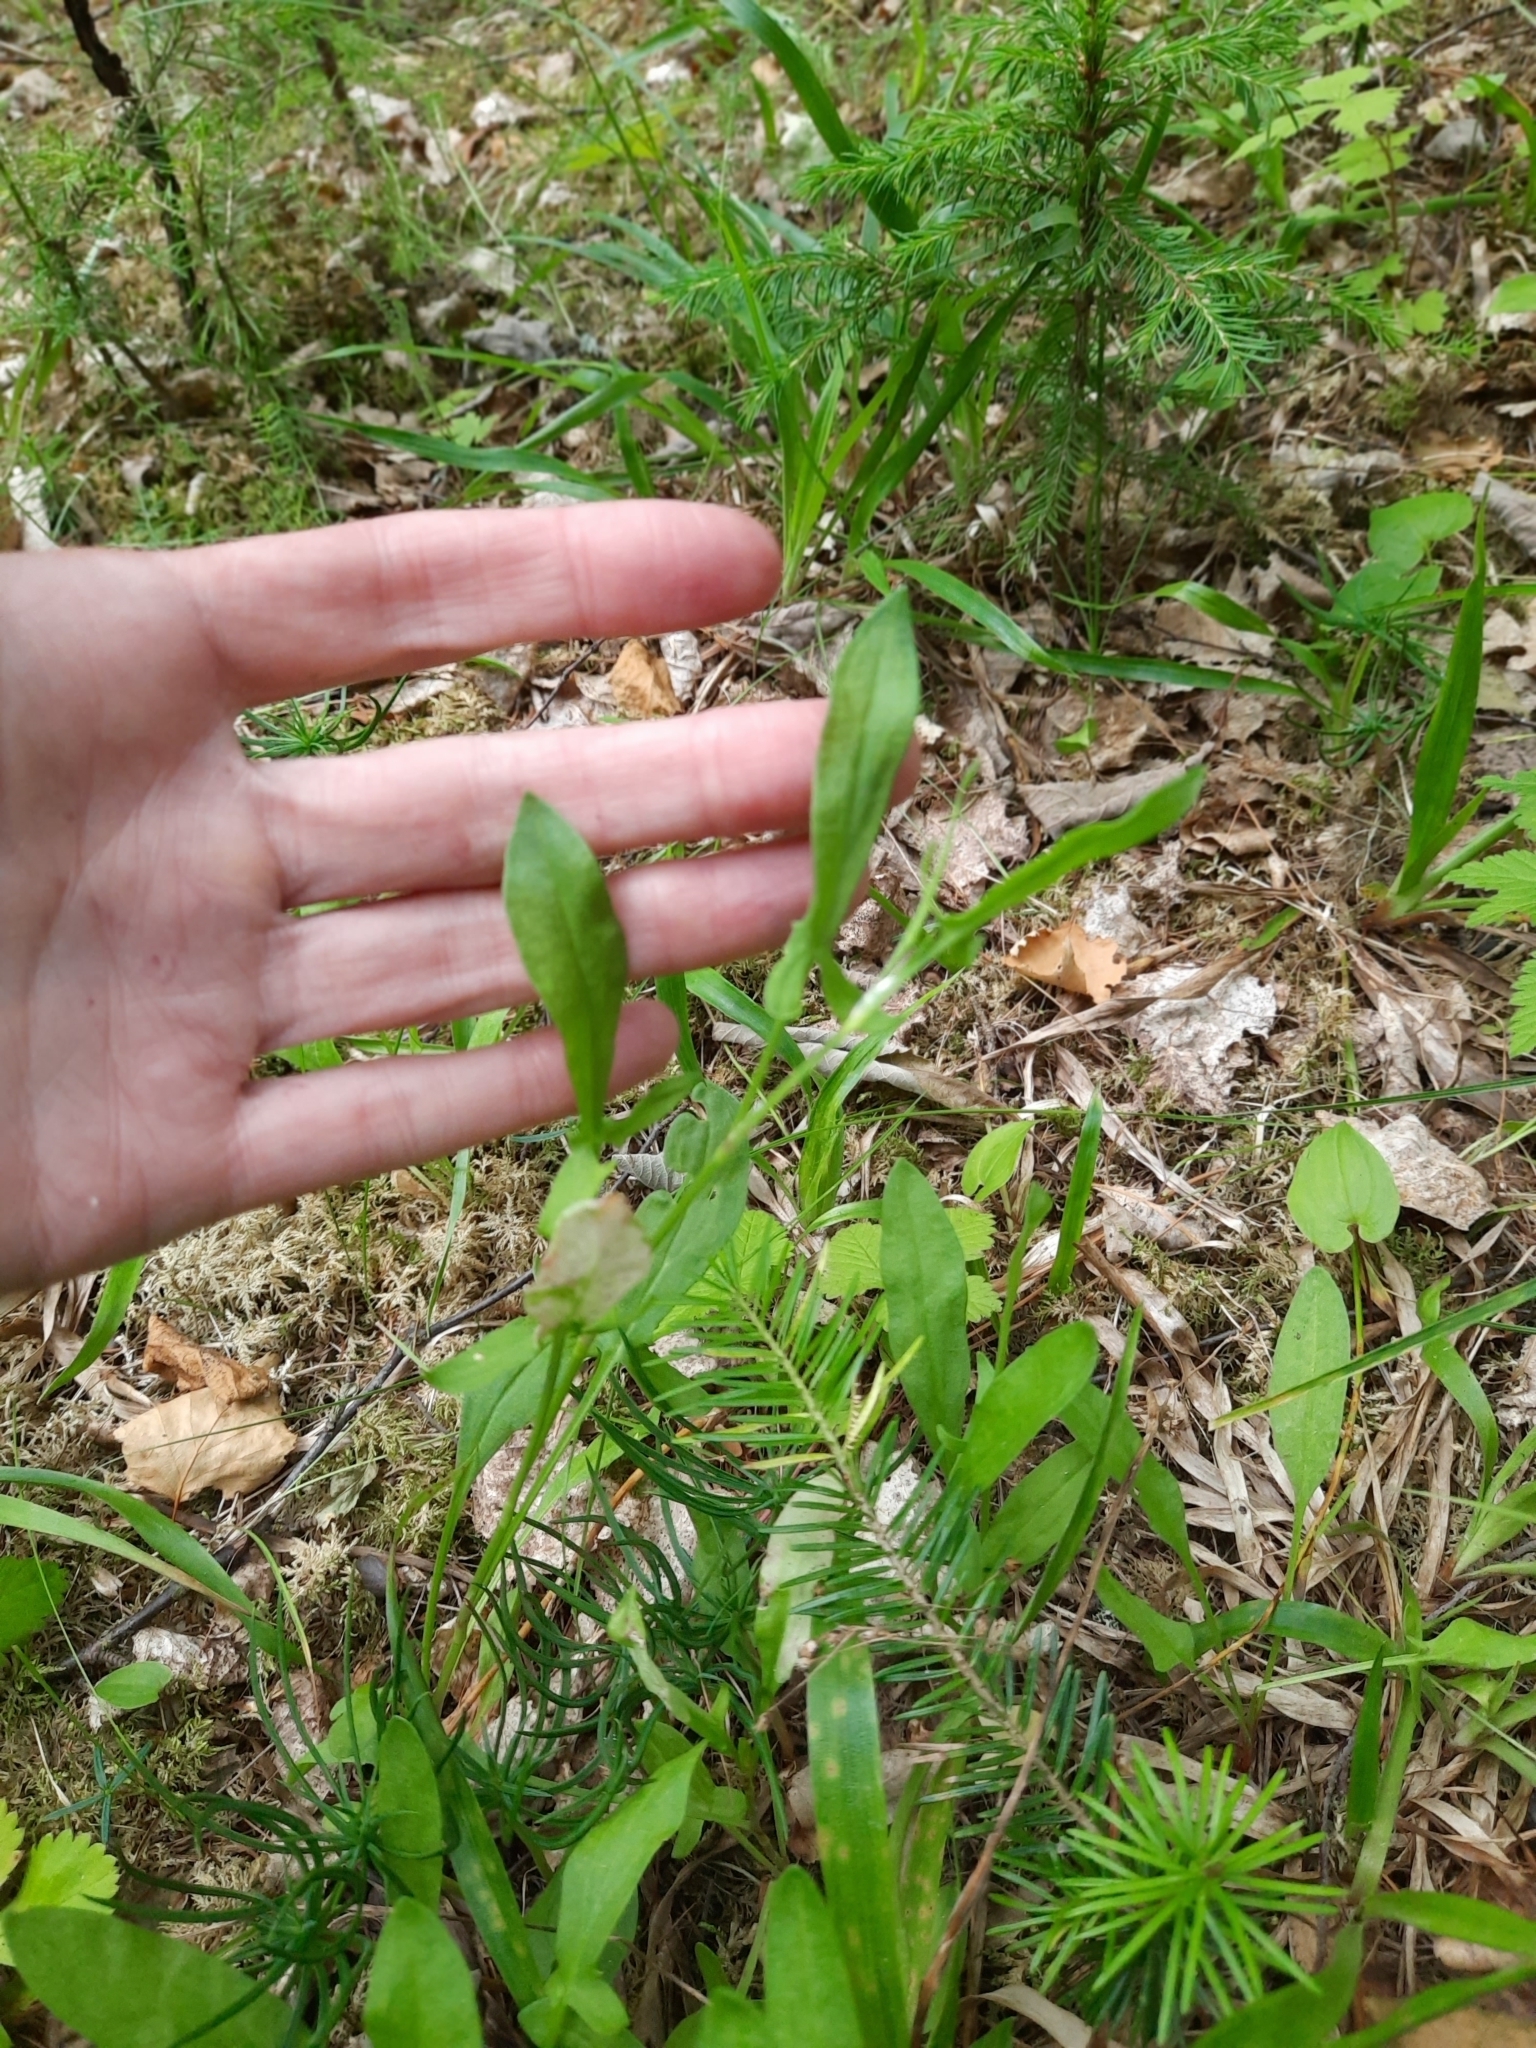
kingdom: Plantae
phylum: Tracheophyta
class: Magnoliopsida
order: Caryophyllales
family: Polygonaceae
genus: Rumex
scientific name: Rumex acetosella
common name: Common sheep sorrel
